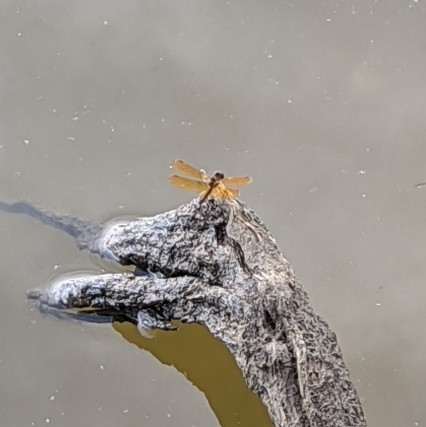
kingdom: Animalia
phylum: Arthropoda
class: Insecta
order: Odonata
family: Libellulidae
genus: Perithemis
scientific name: Perithemis tenera
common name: Eastern amberwing
